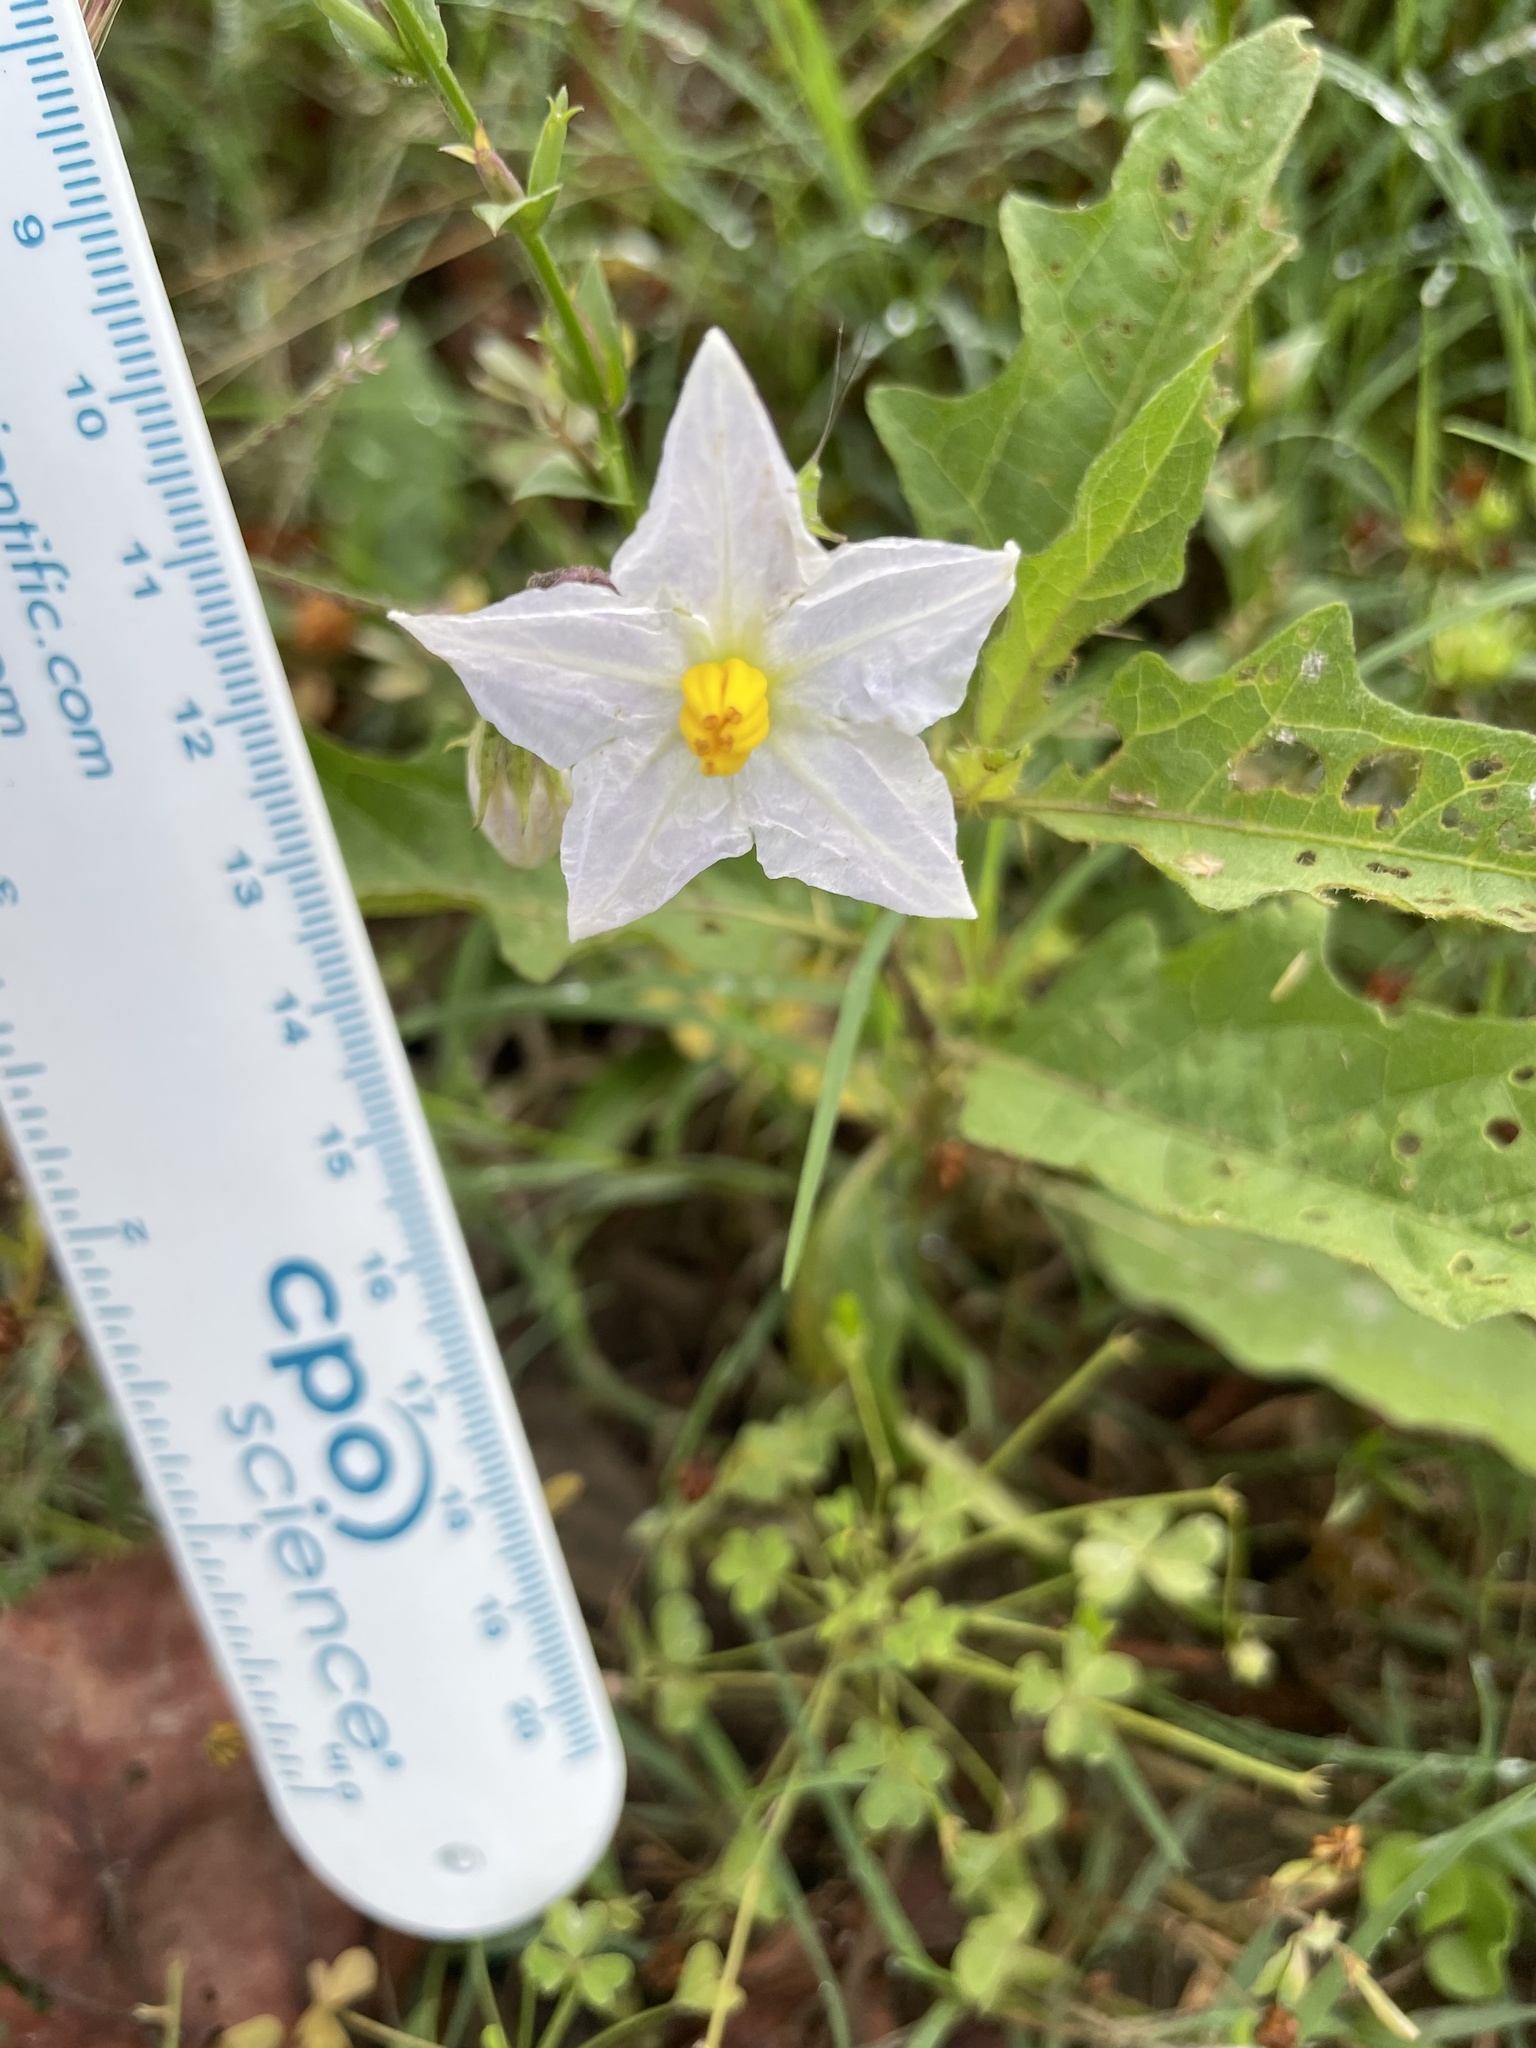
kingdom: Plantae
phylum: Tracheophyta
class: Magnoliopsida
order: Solanales
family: Solanaceae
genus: Solanum
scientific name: Solanum carolinense
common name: Horse-nettle
